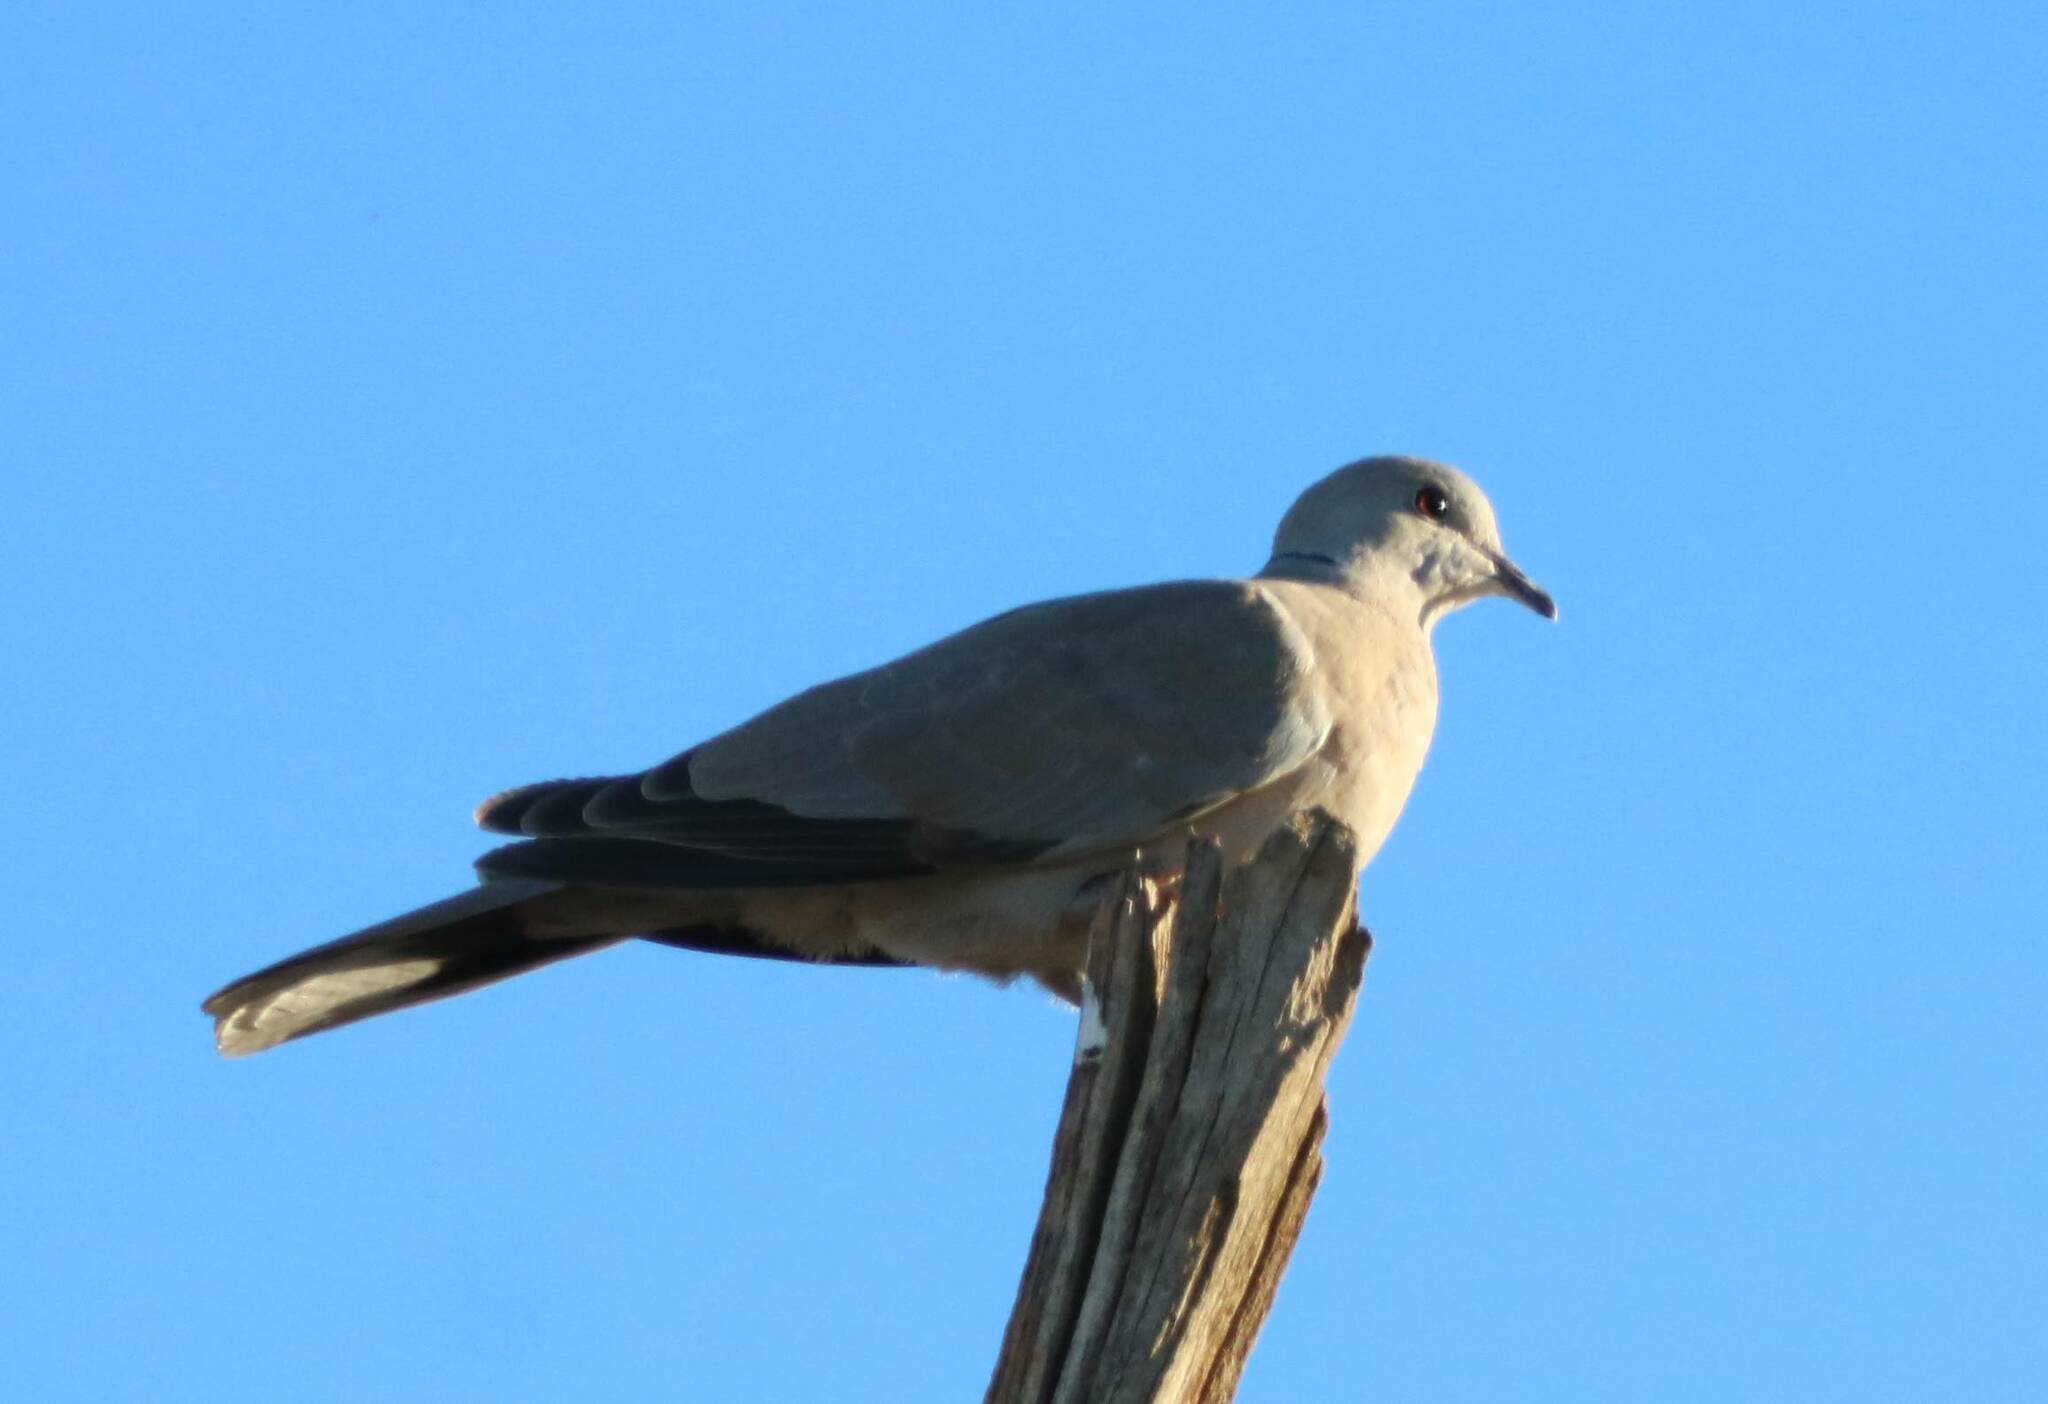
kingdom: Animalia
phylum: Chordata
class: Aves
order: Columbiformes
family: Columbidae
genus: Streptopelia
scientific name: Streptopelia decaocto
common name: Eurasian collared dove
